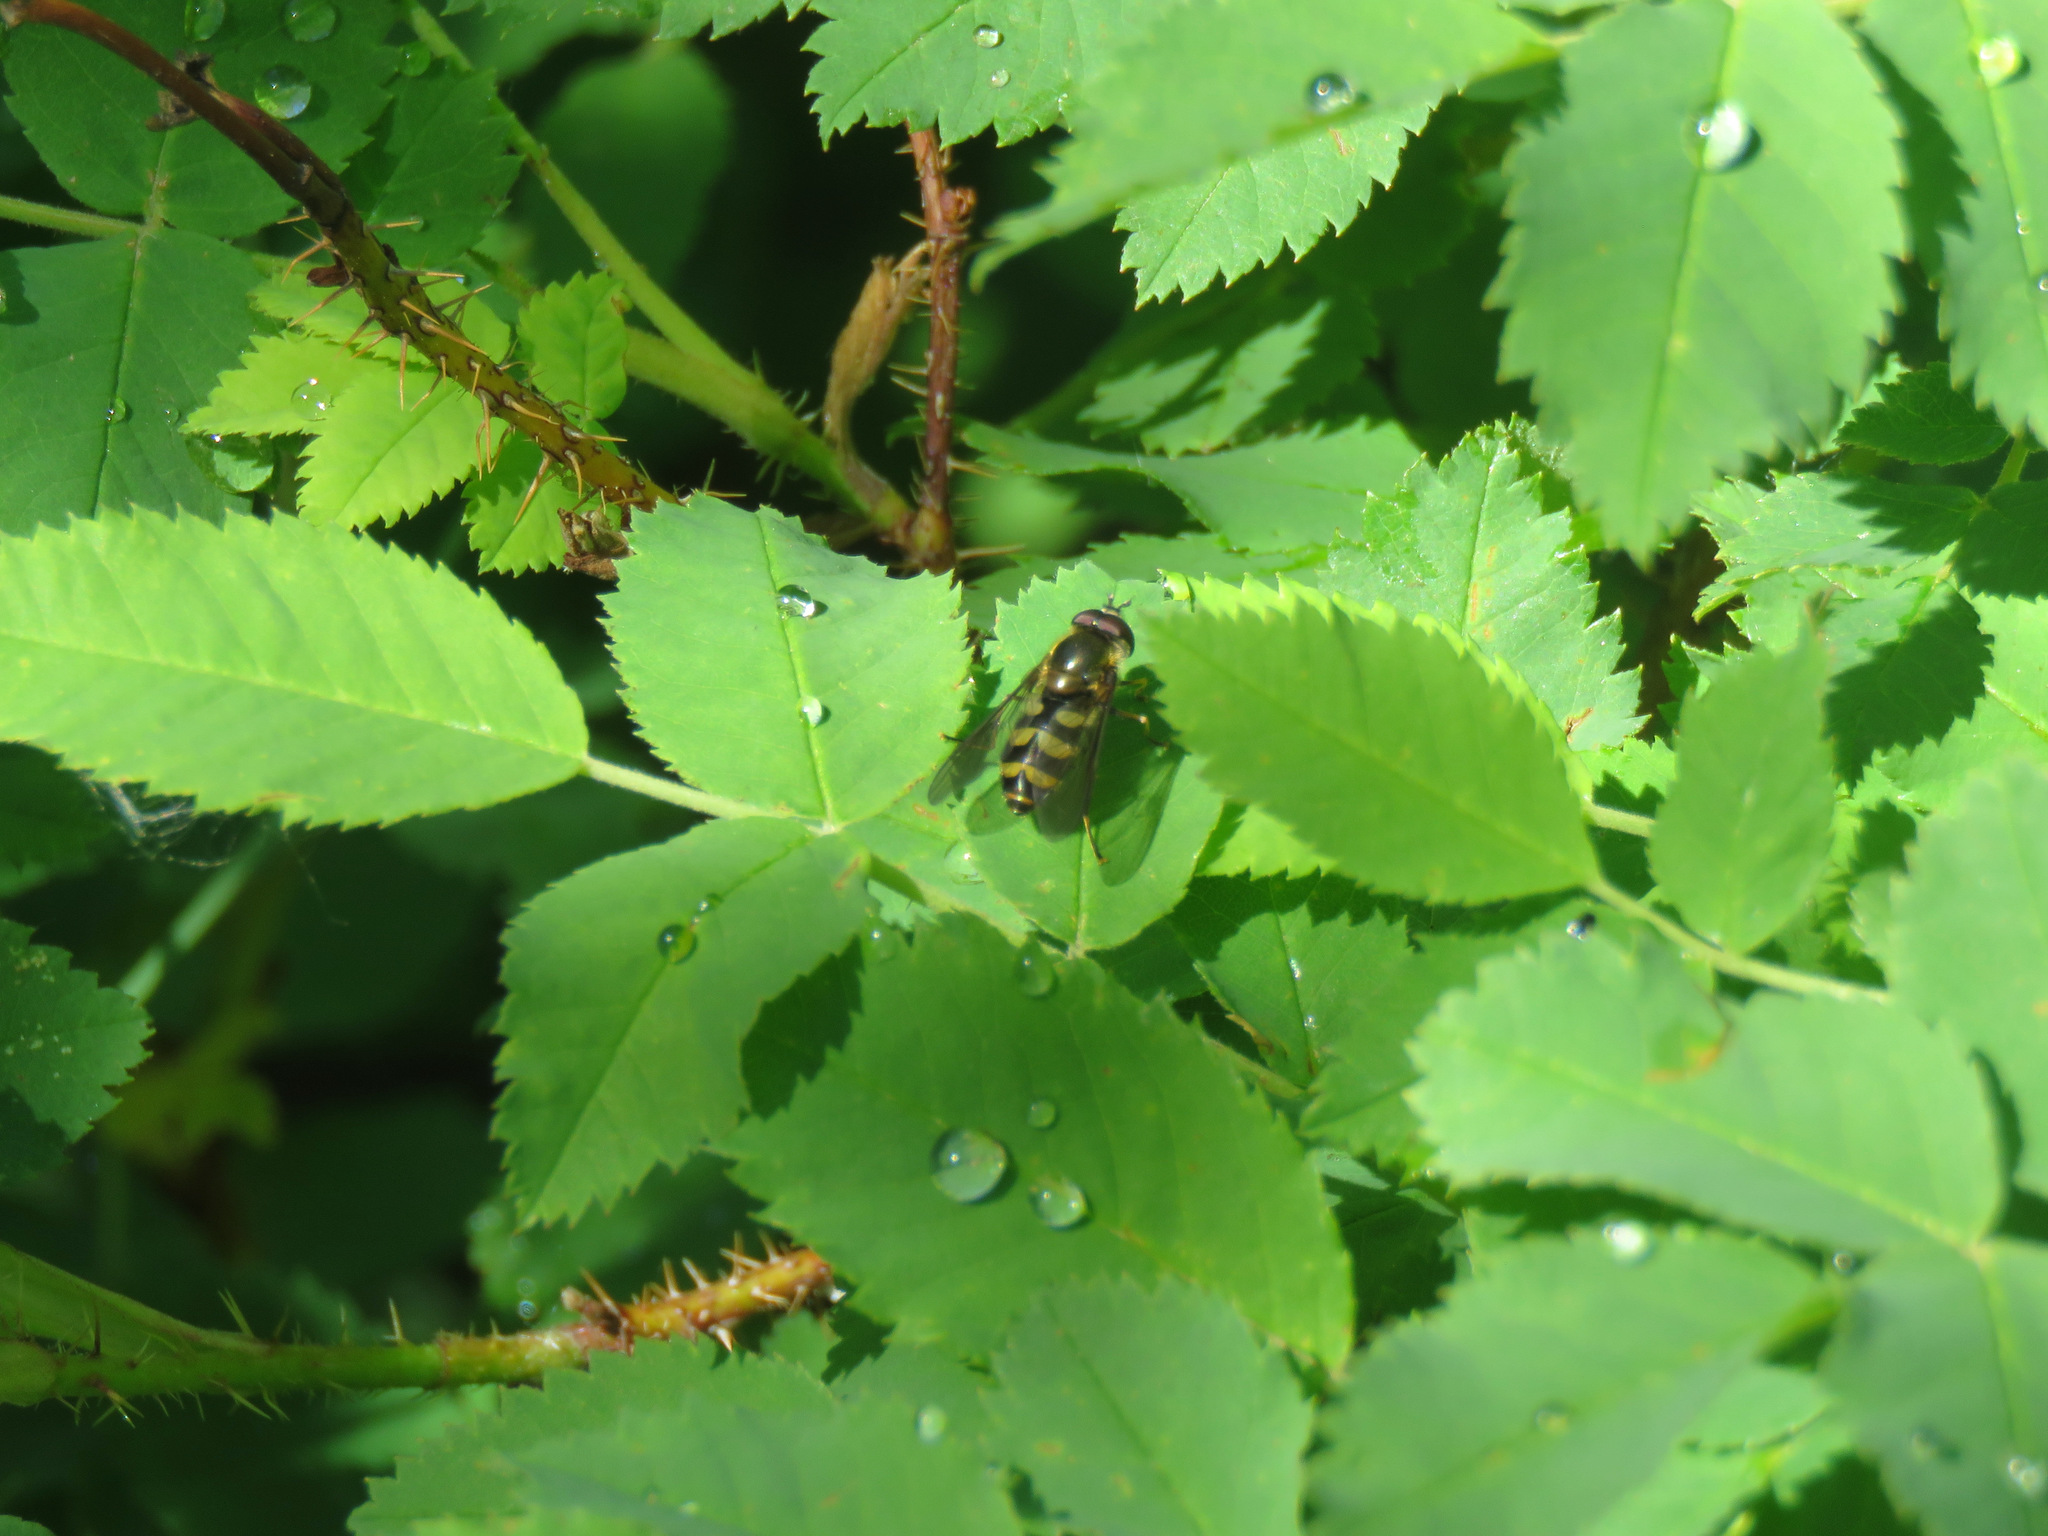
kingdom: Animalia
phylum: Arthropoda
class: Insecta
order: Diptera
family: Syrphidae
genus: Megasyrphus
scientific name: Megasyrphus laxus
